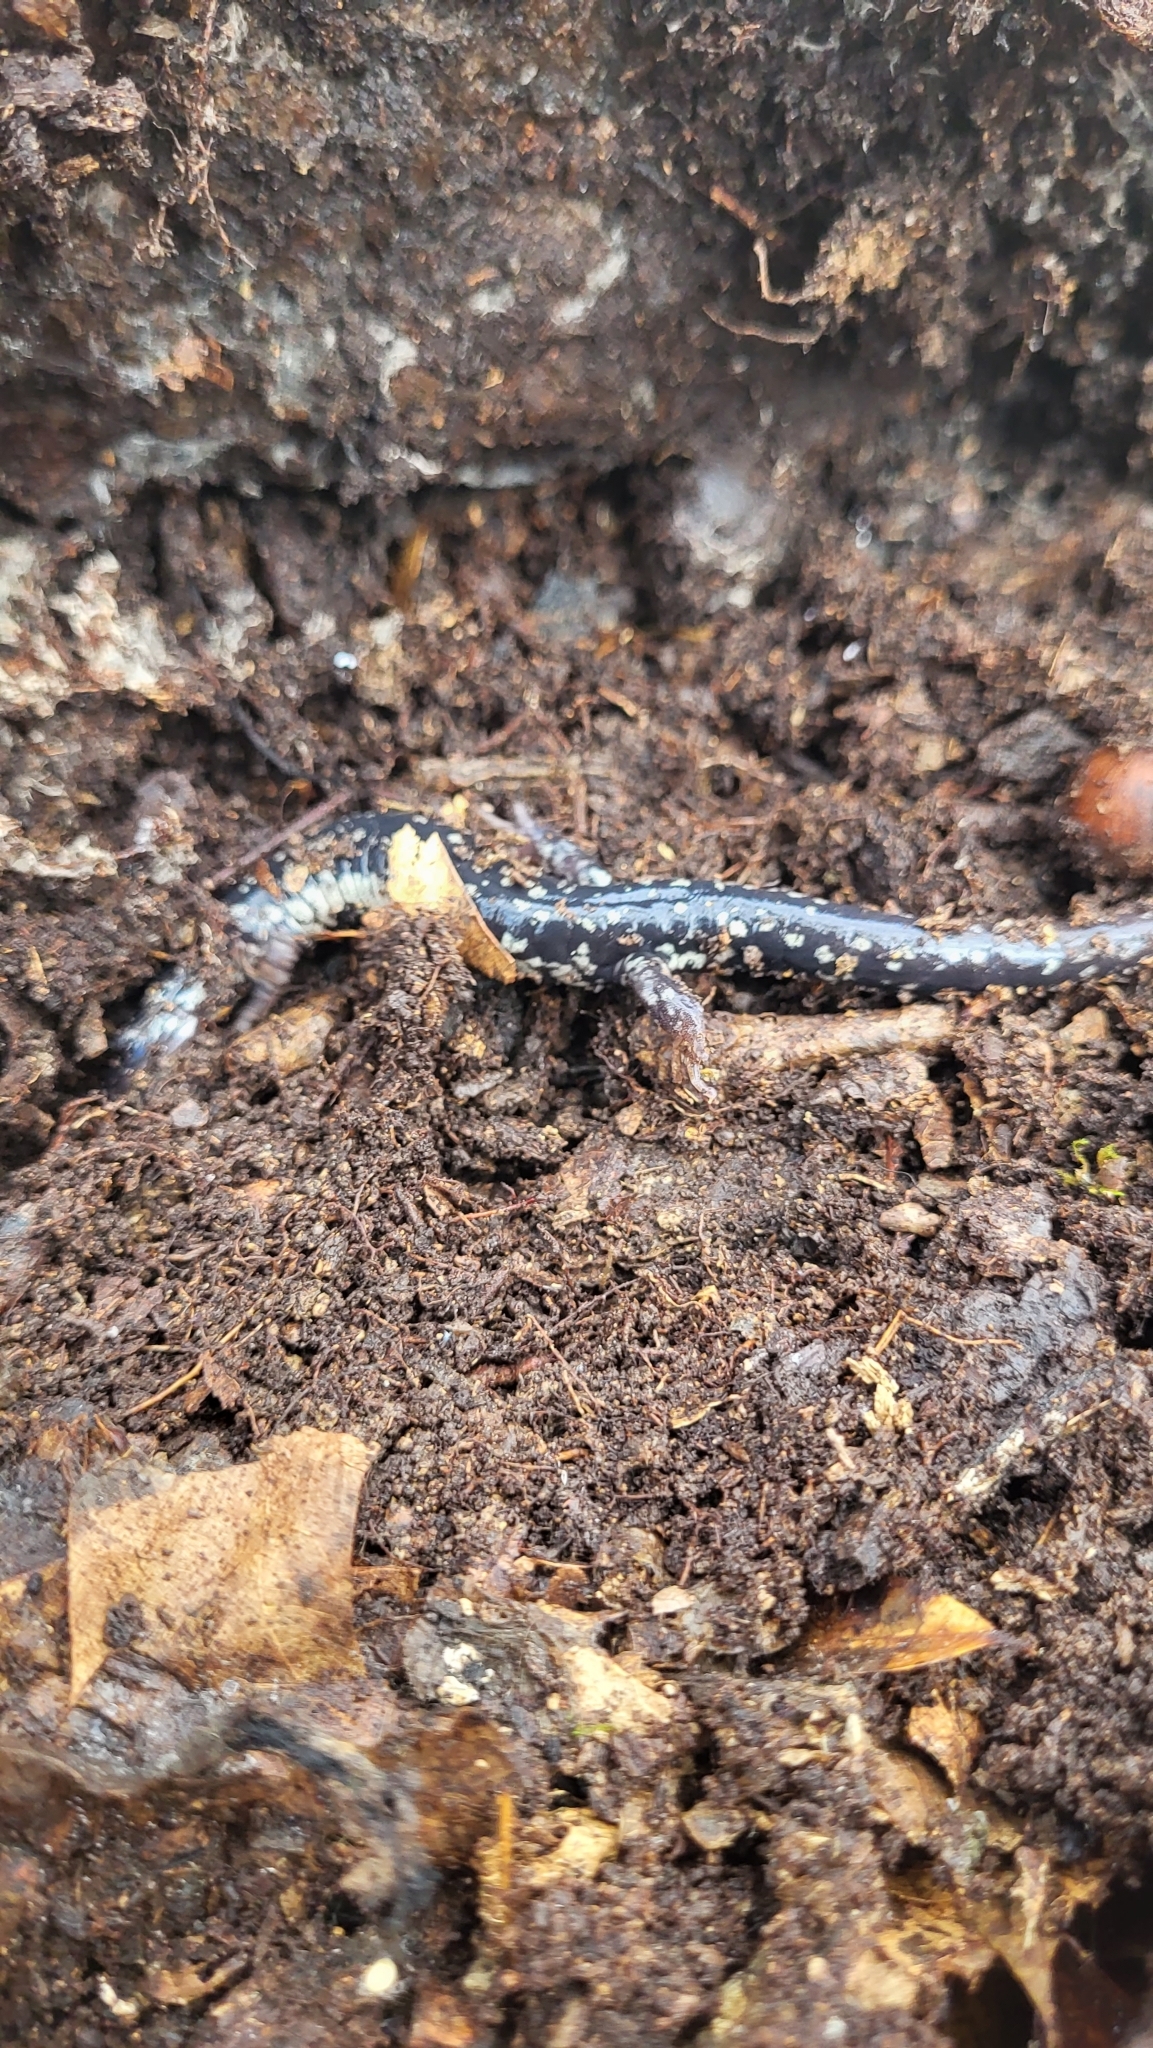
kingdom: Animalia
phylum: Chordata
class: Amphibia
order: Caudata
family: Plethodontidae
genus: Plethodon
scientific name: Plethodon mississippi
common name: Mississippi slimy salamander
